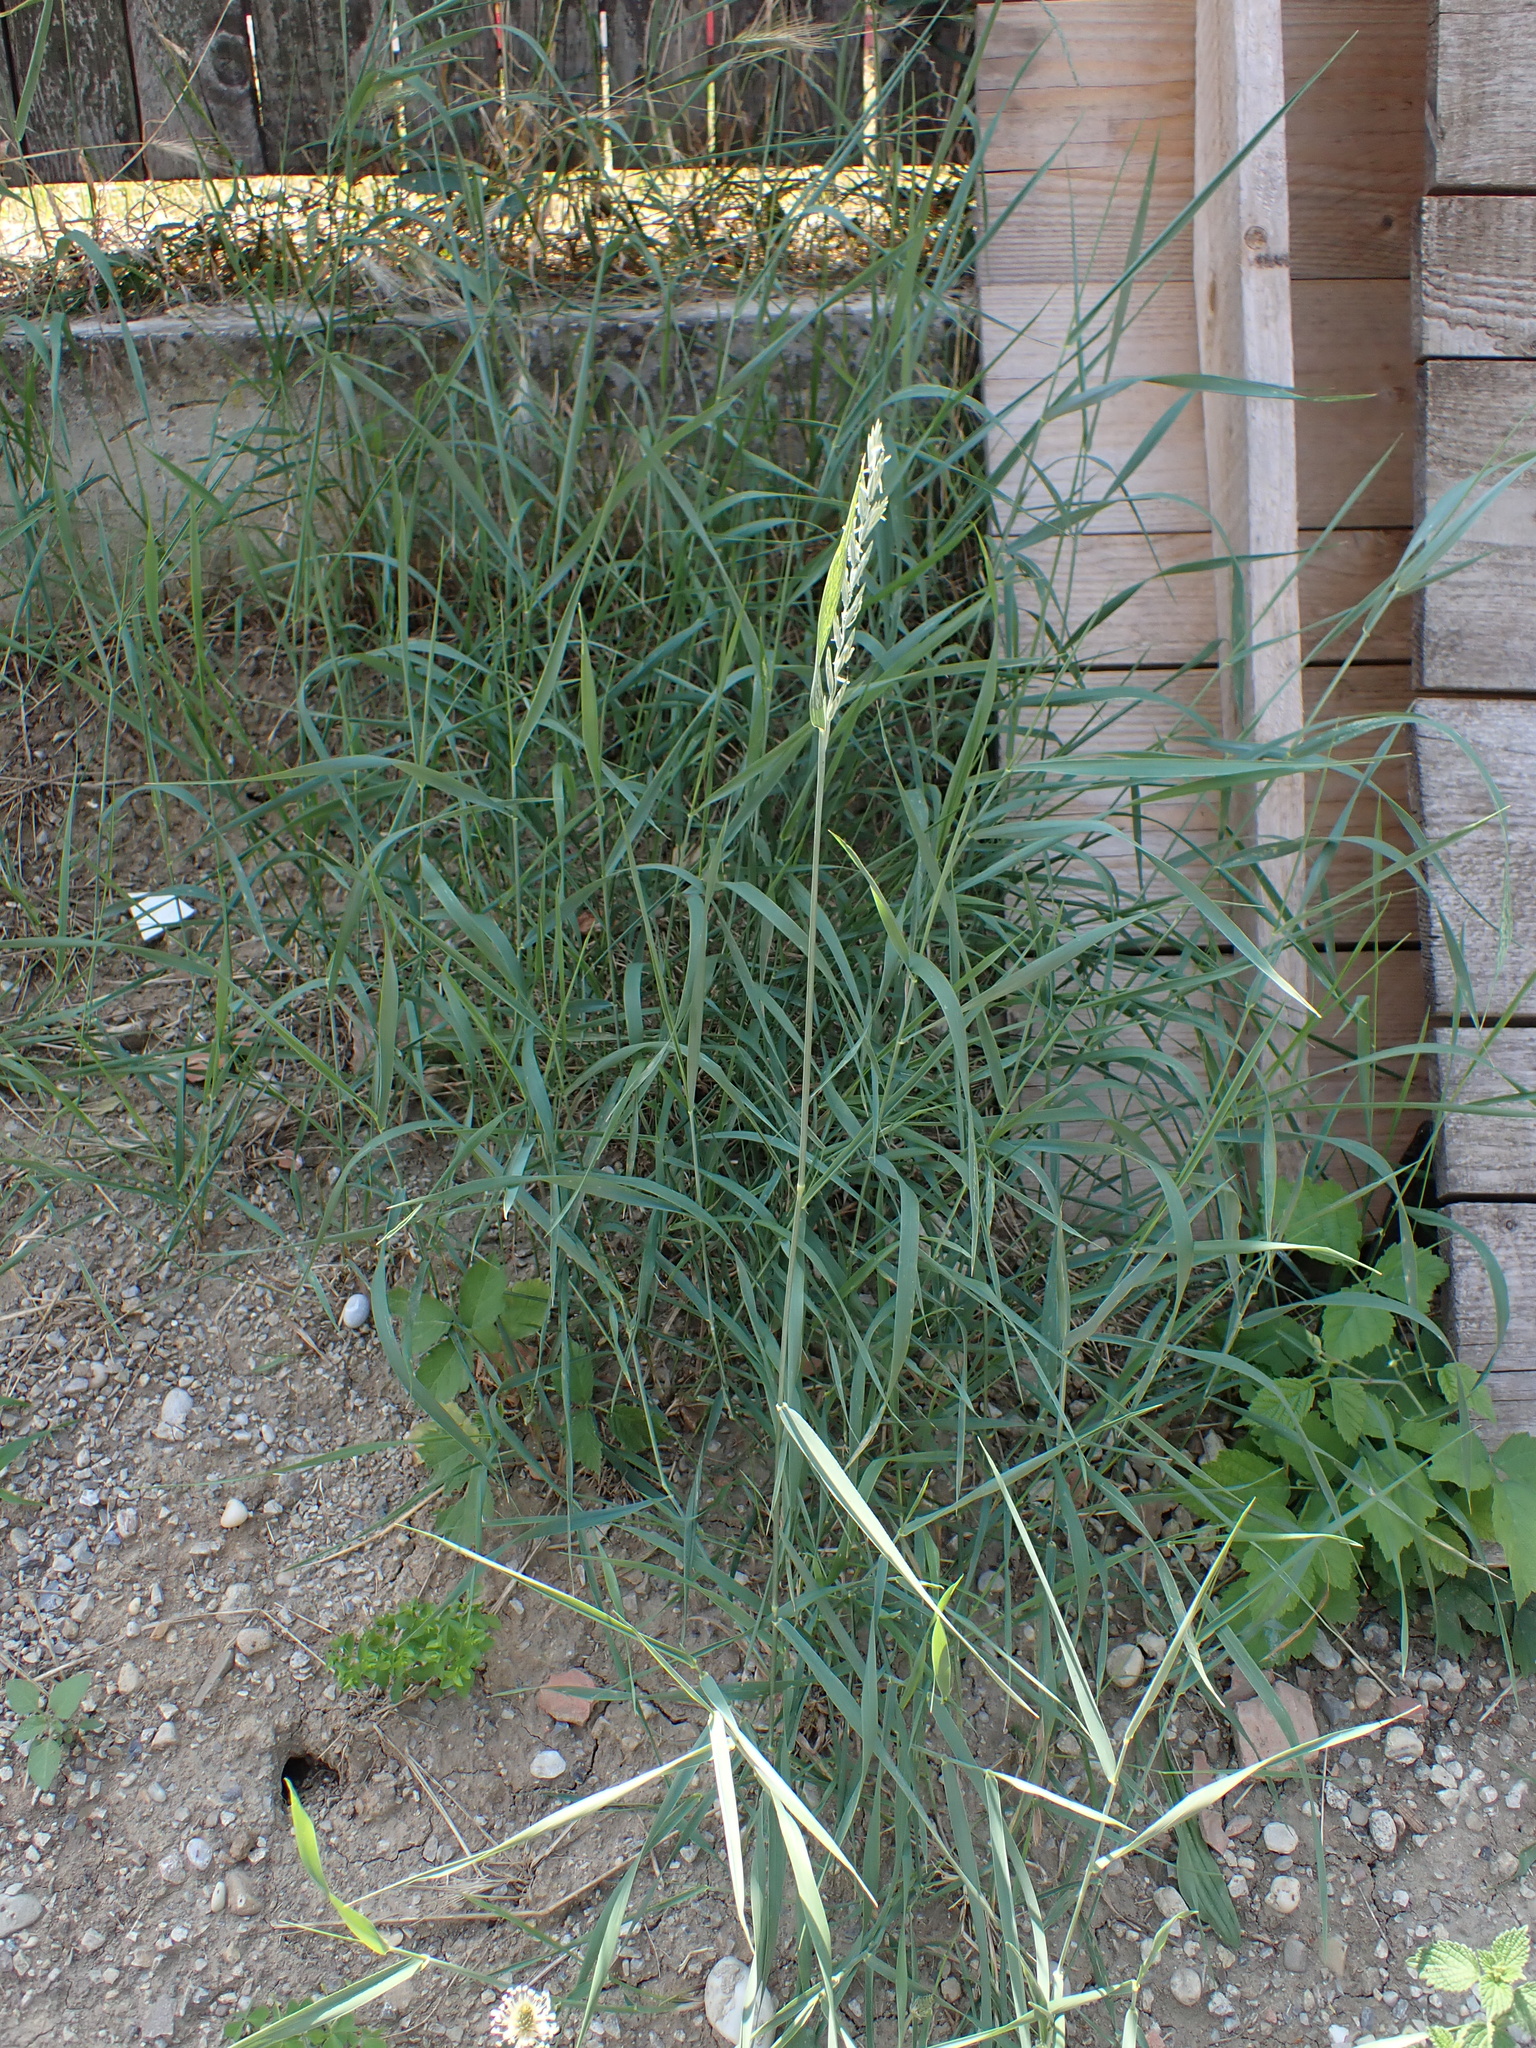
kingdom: Plantae
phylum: Tracheophyta
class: Liliopsida
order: Poales
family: Poaceae
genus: Elymus
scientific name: Elymus repens
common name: Quackgrass
